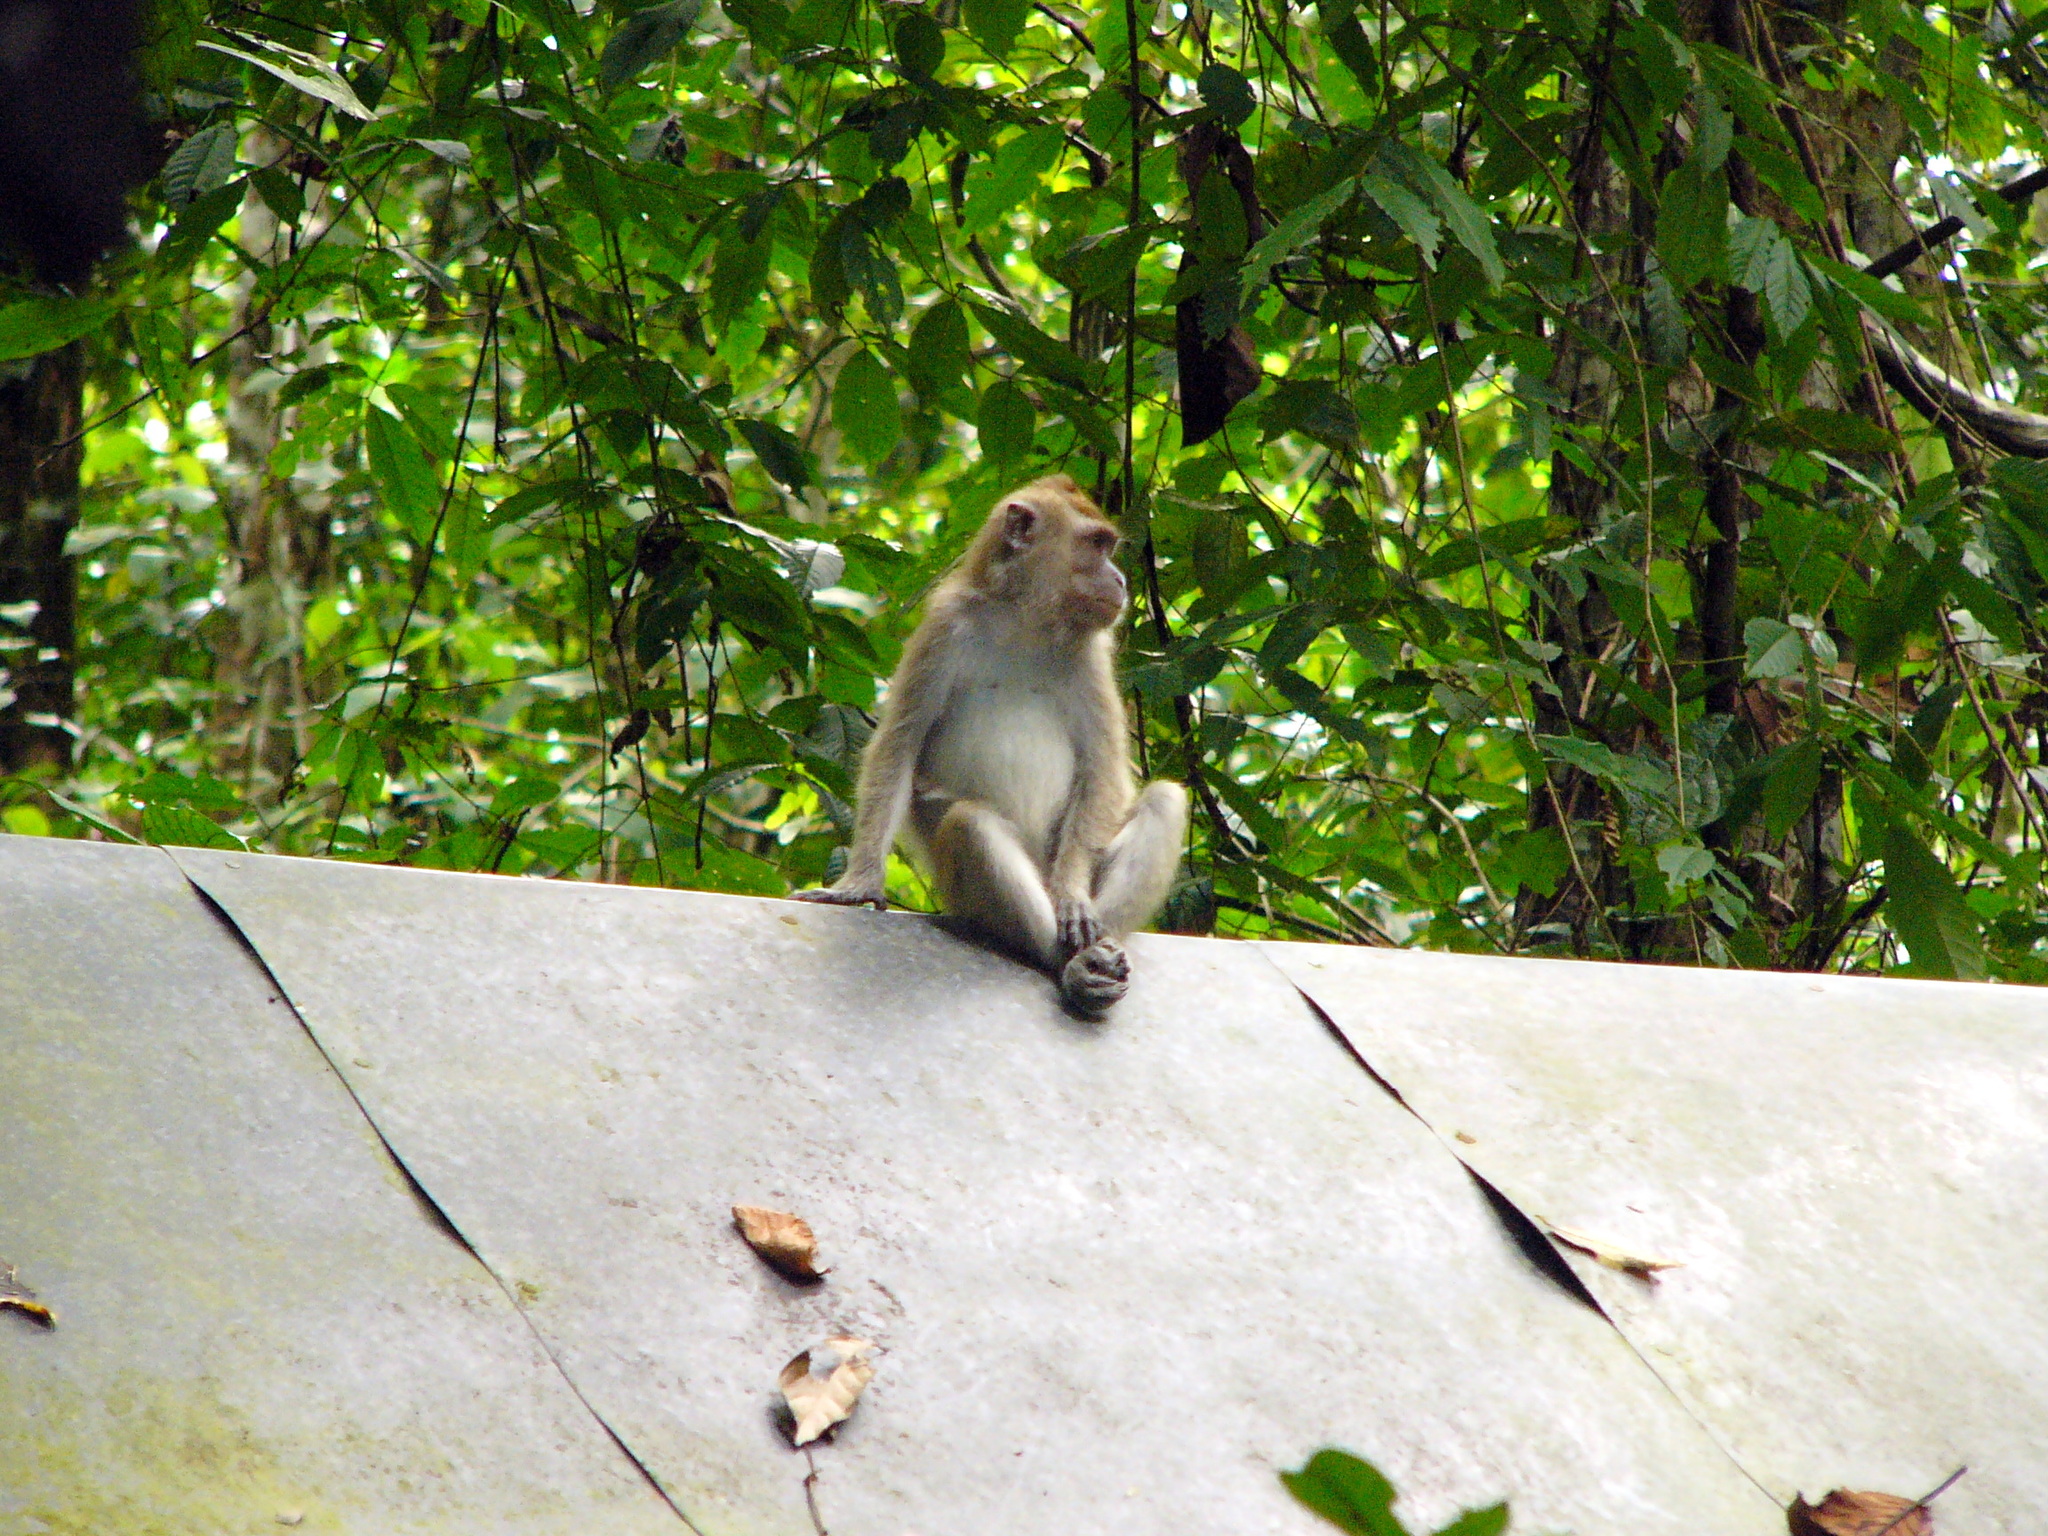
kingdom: Animalia
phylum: Chordata
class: Mammalia
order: Primates
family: Cercopithecidae
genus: Macaca
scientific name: Macaca fascicularis
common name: Crab-eating macaque
